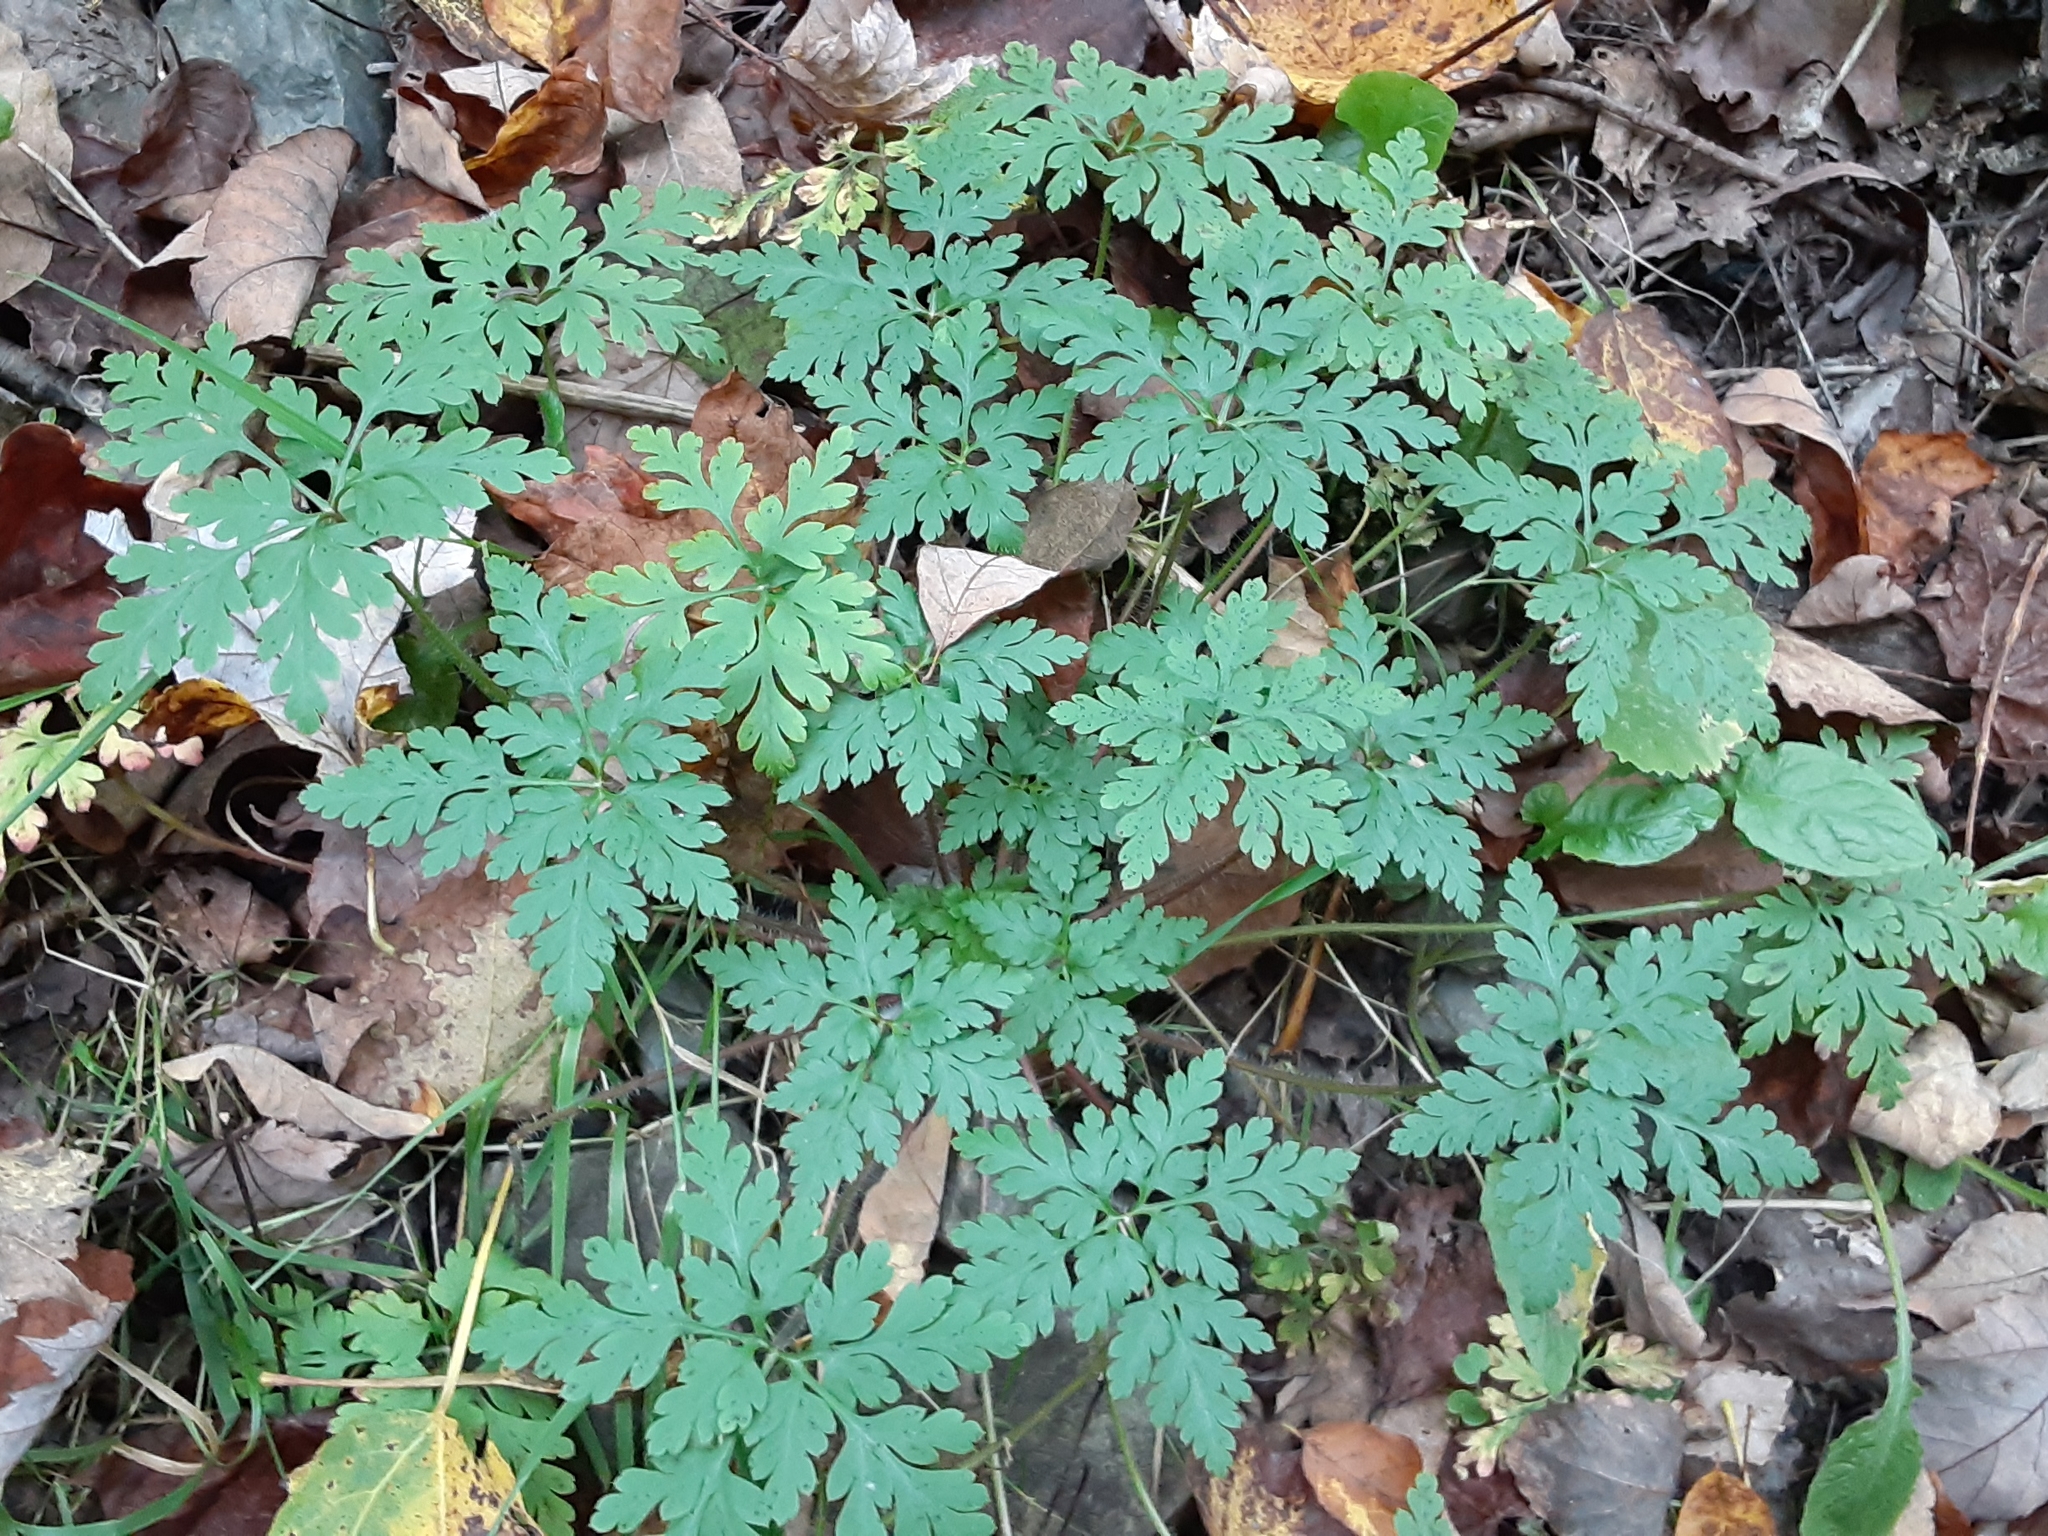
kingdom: Plantae
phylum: Tracheophyta
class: Magnoliopsida
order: Geraniales
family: Geraniaceae
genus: Geranium
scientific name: Geranium robertianum
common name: Herb-robert
